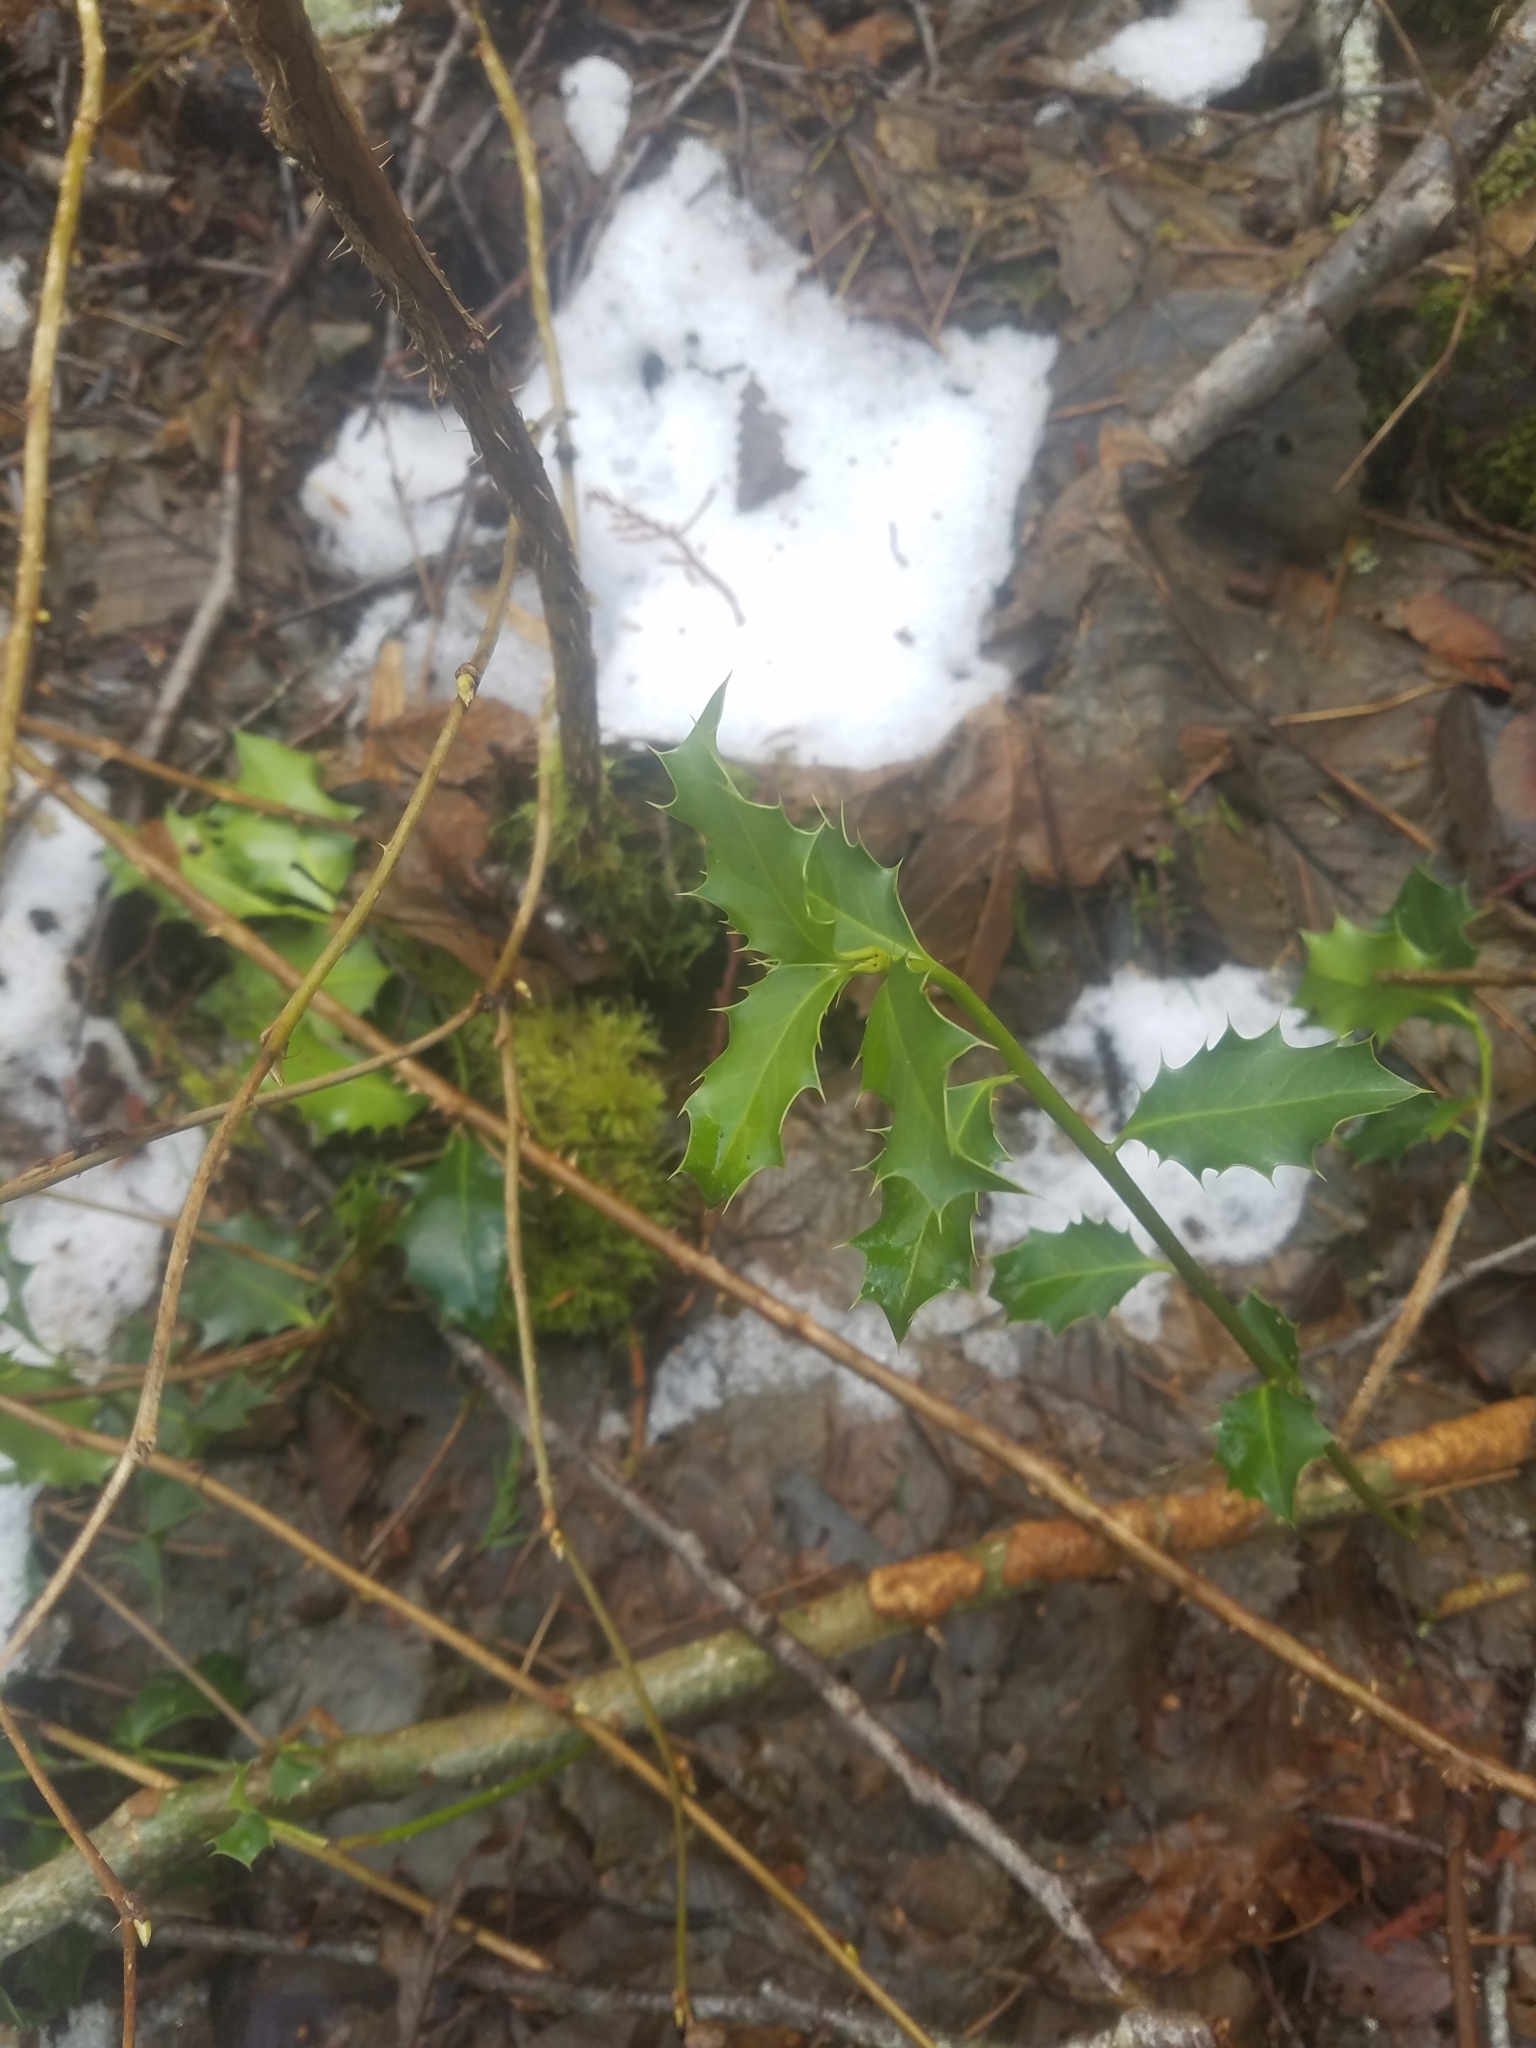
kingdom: Plantae
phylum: Tracheophyta
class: Magnoliopsida
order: Aquifoliales
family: Aquifoliaceae
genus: Ilex
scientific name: Ilex aquifolium
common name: English holly
